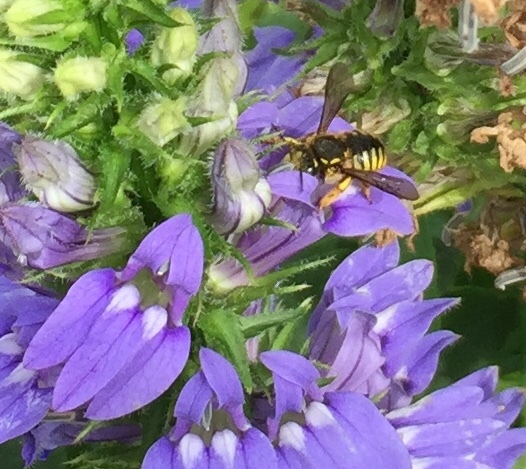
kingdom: Animalia
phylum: Arthropoda
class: Insecta
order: Hymenoptera
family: Megachilidae
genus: Anthidium
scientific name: Anthidium manicatum
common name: Wool carder bee
